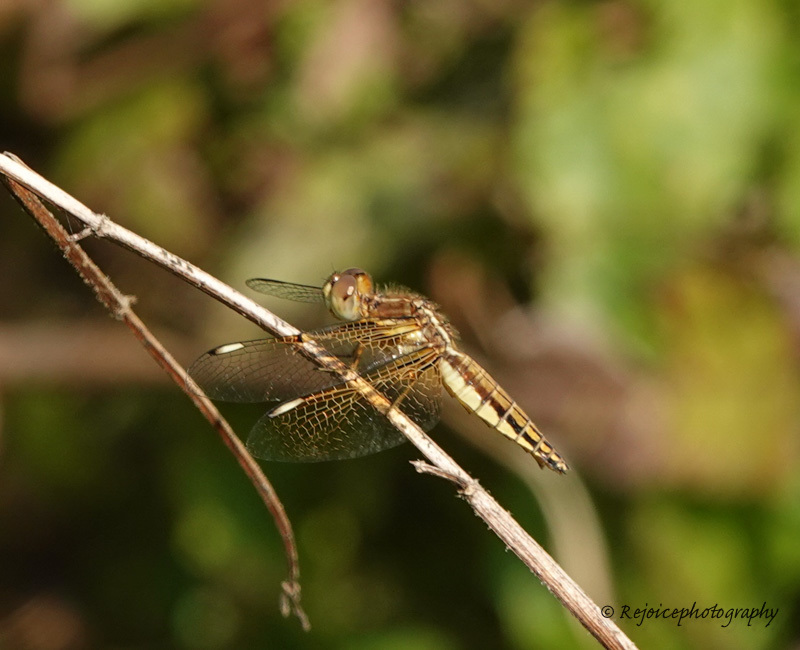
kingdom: Animalia
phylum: Arthropoda
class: Insecta
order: Odonata
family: Libellulidae
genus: Palpopleura
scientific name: Palpopleura sexmaculata
